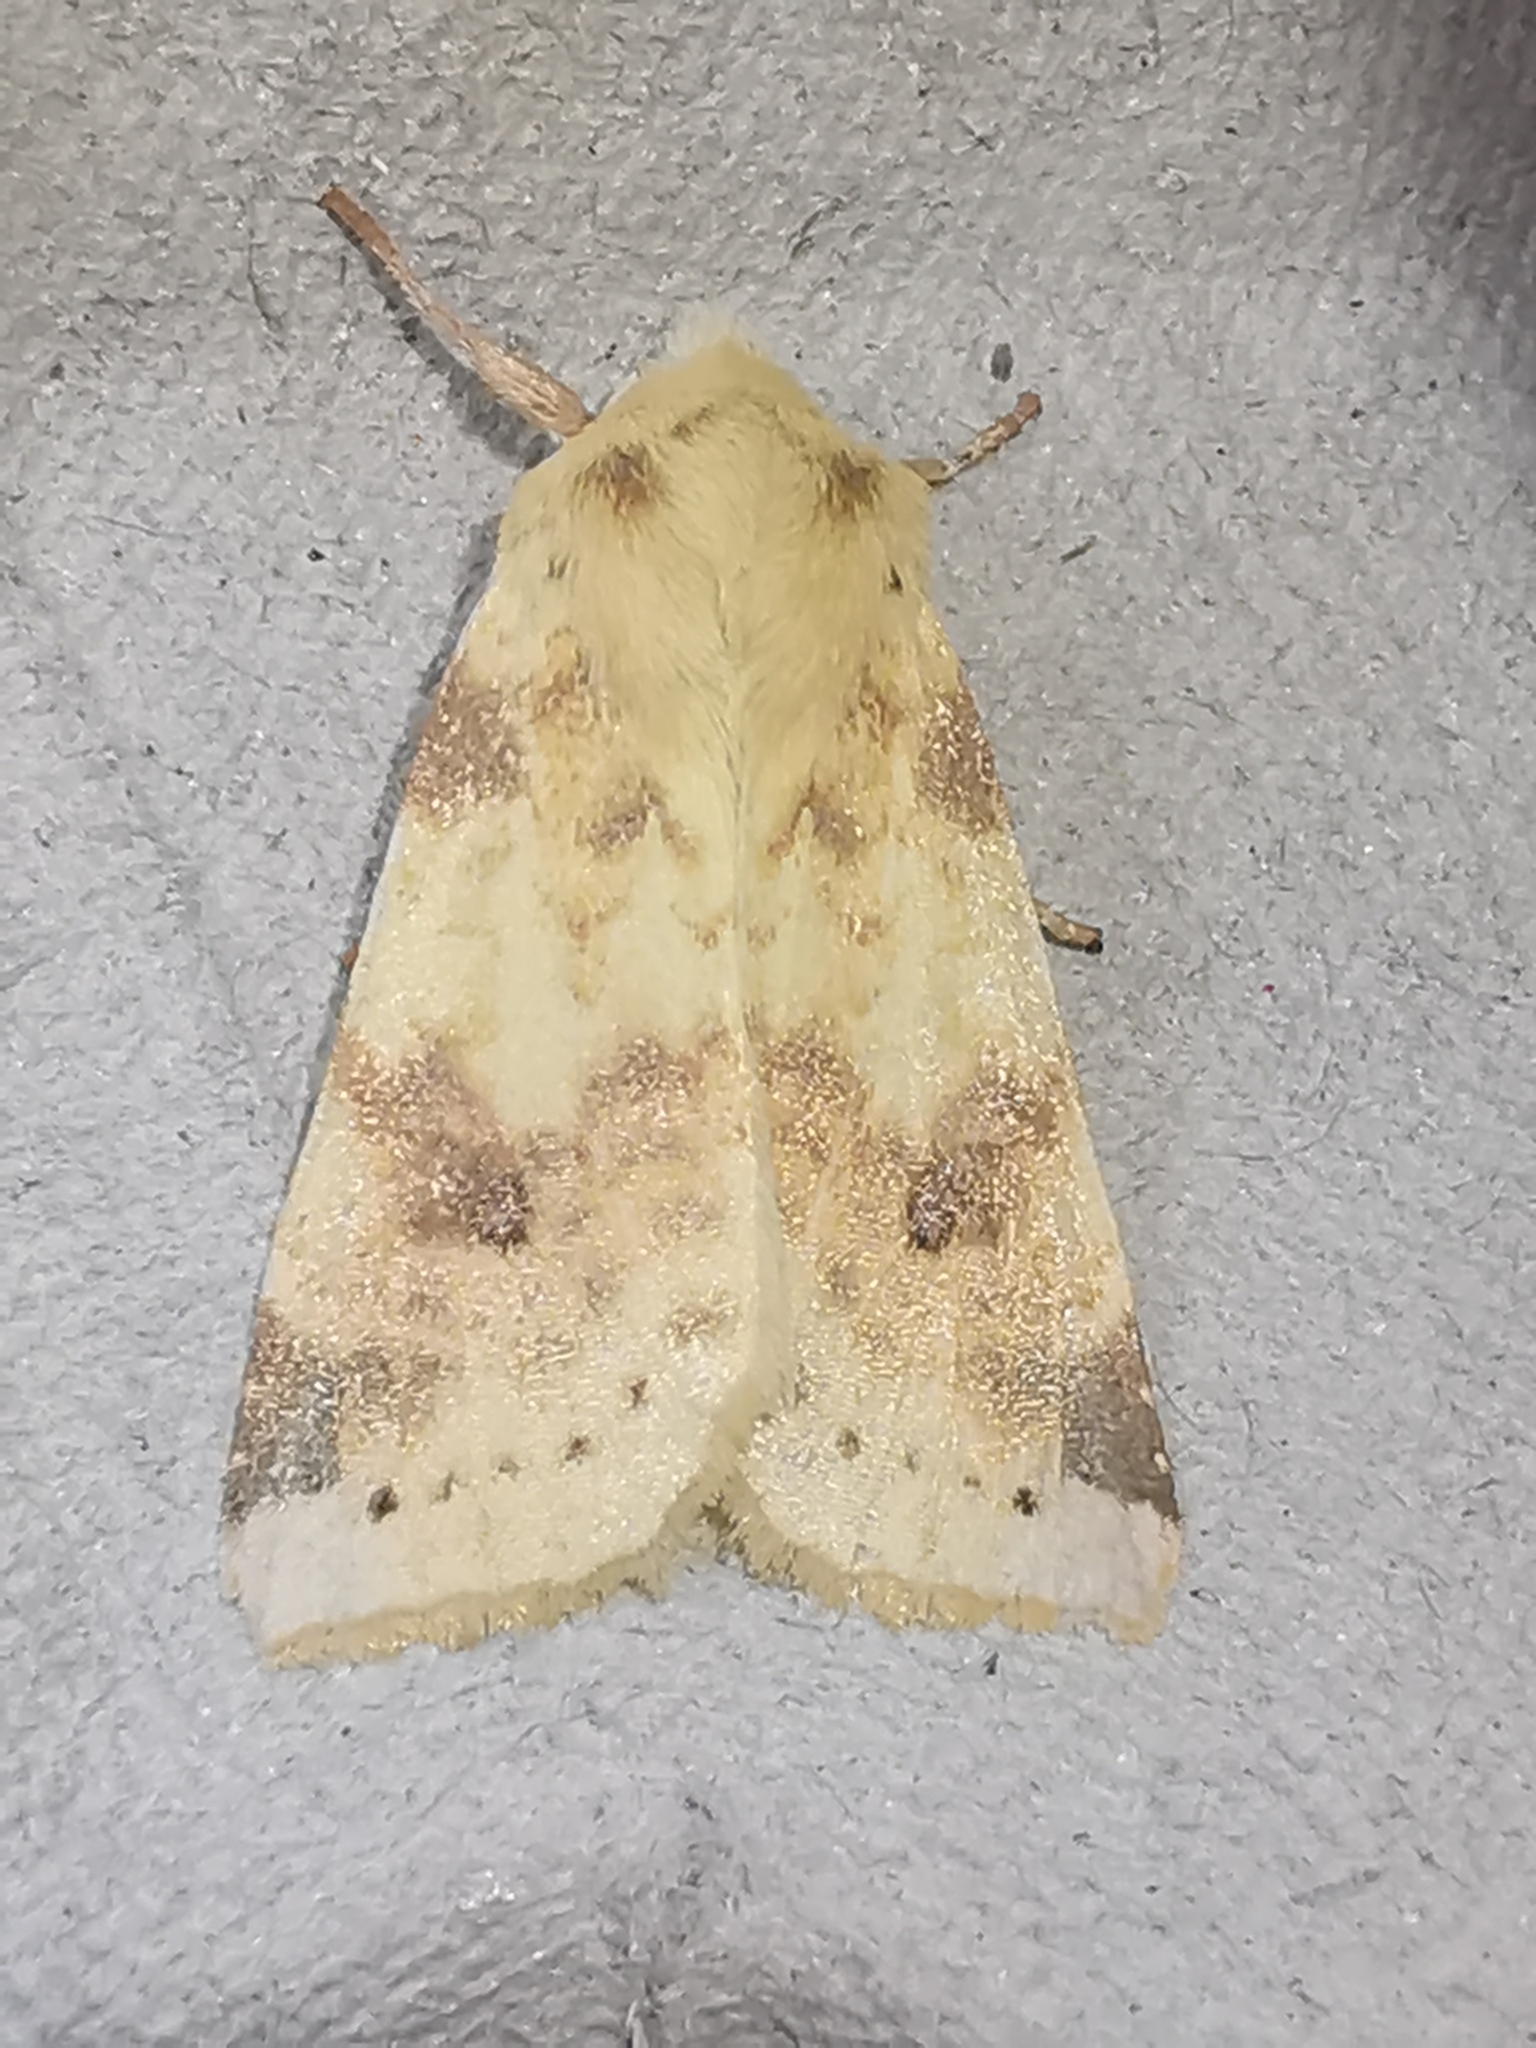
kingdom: Animalia
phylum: Arthropoda
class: Insecta
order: Lepidoptera
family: Noctuidae
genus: Xanthia
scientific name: Xanthia icteritia
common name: The sallow
